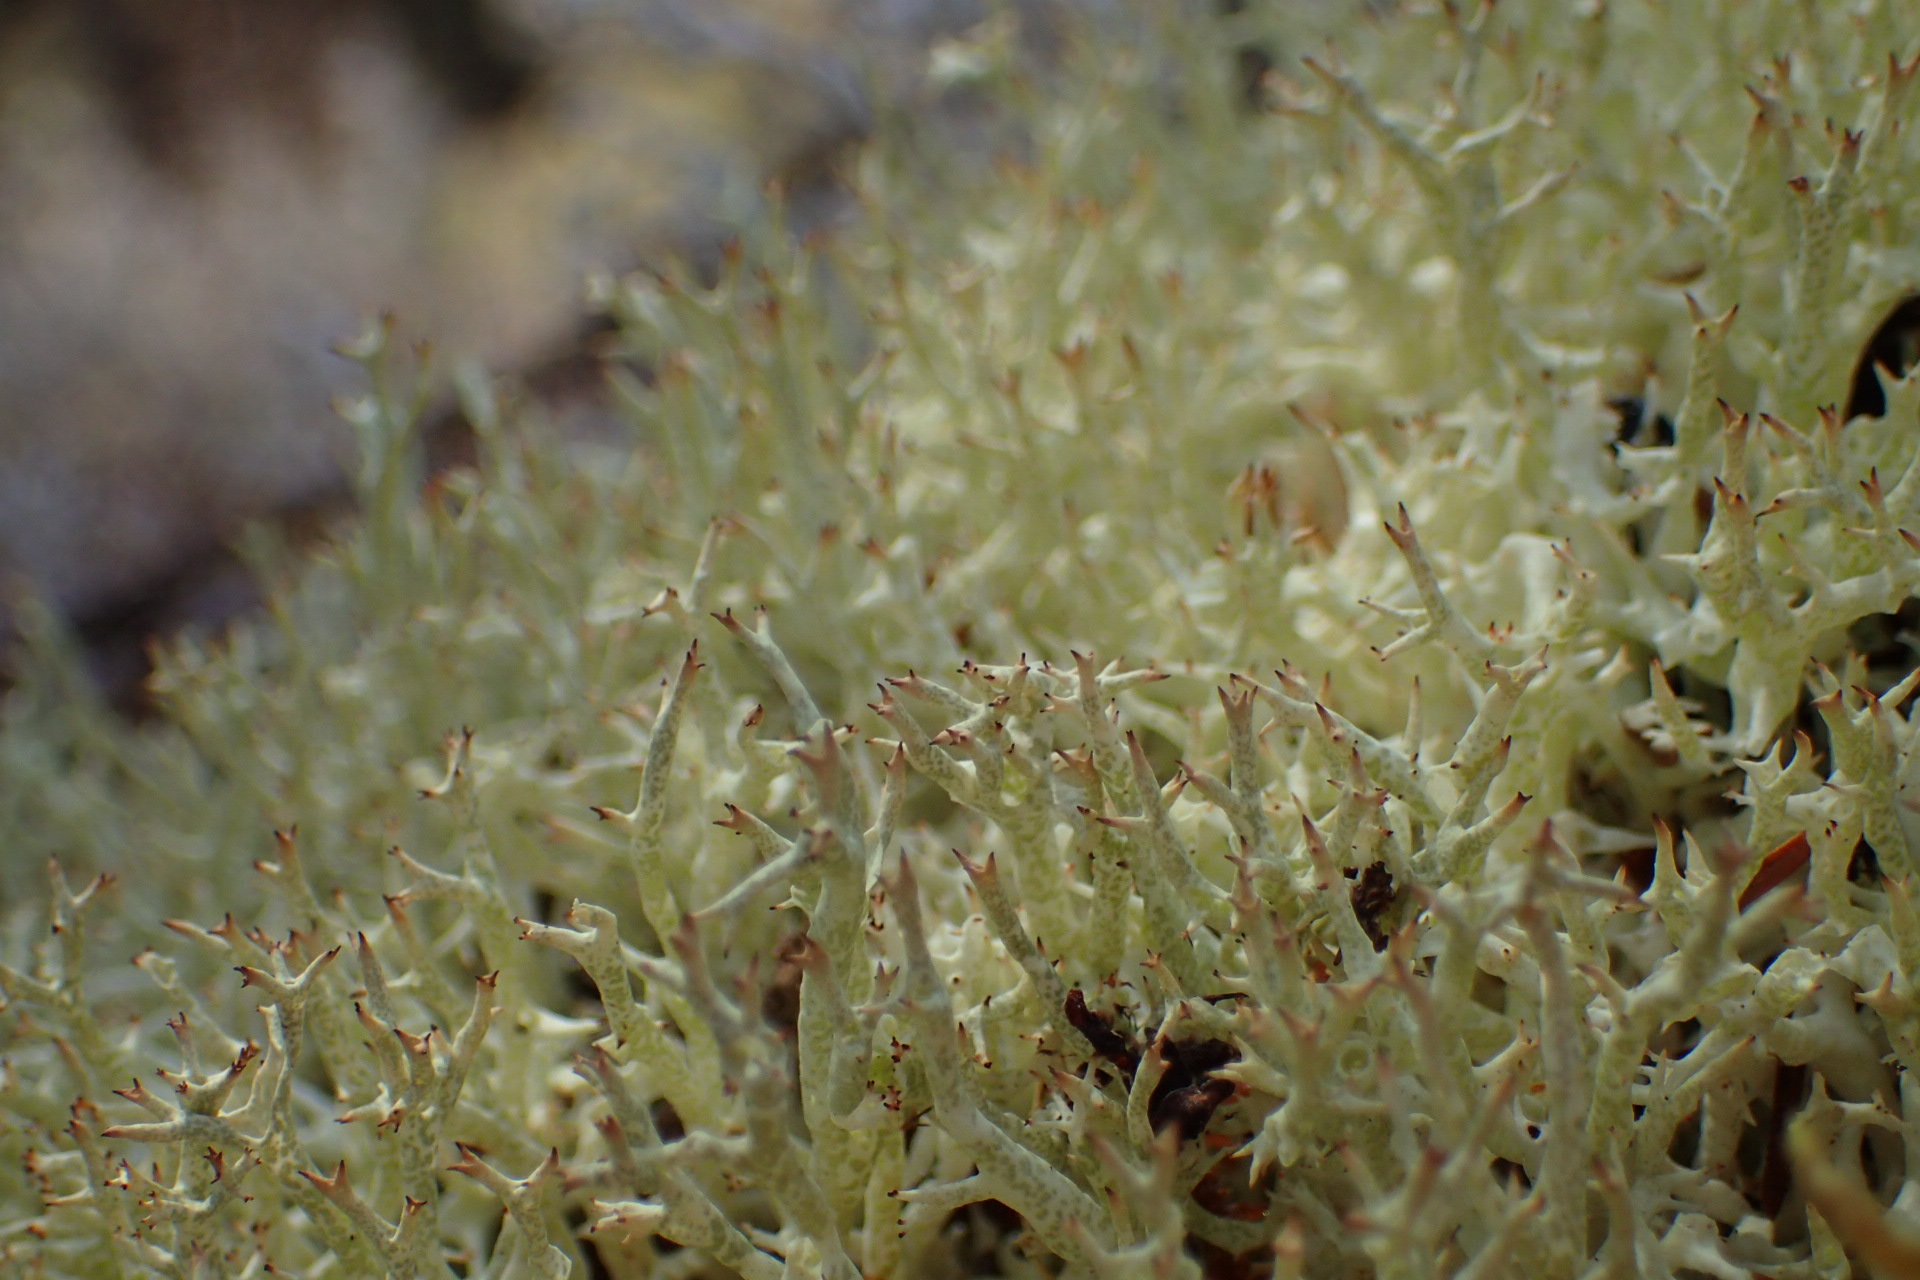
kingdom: Fungi
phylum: Ascomycota
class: Lecanoromycetes
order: Lecanorales
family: Cladoniaceae
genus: Cladonia
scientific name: Cladonia uncialis
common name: Thorn lichen
